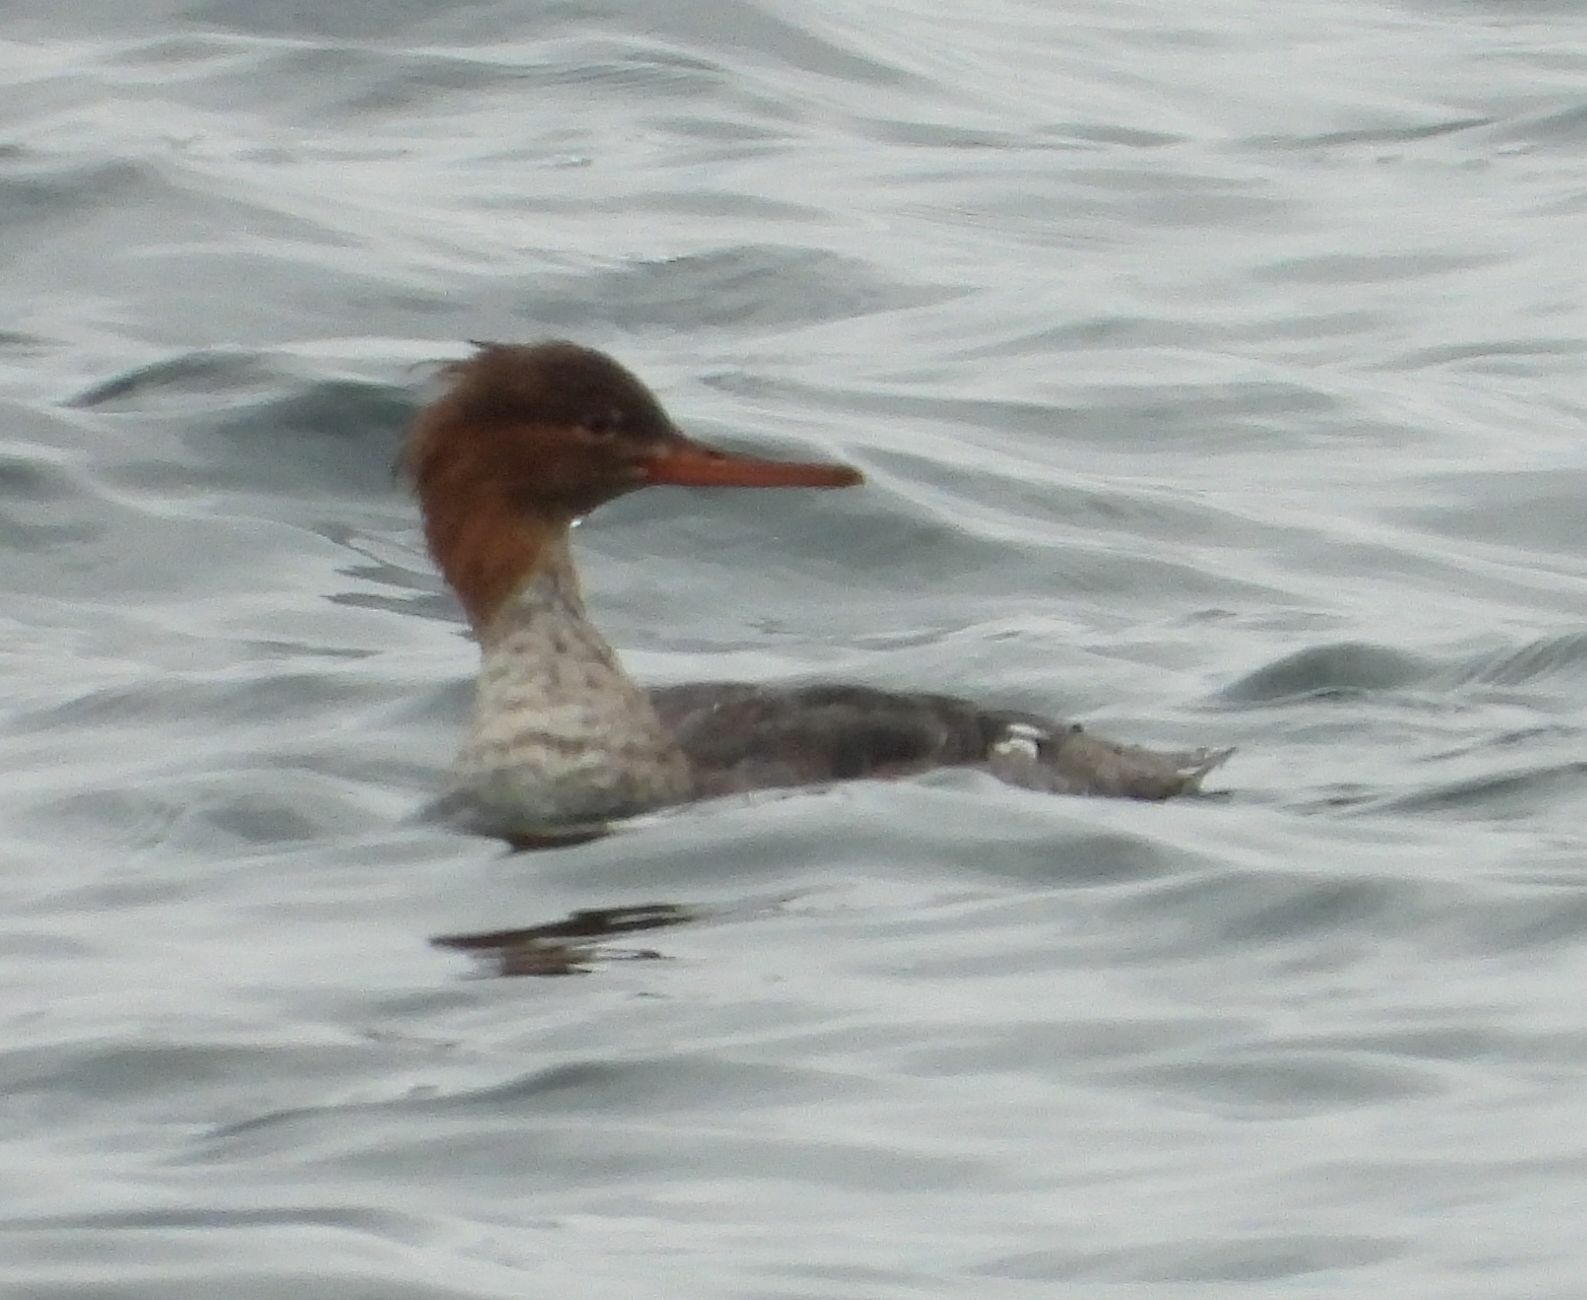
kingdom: Animalia
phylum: Chordata
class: Aves
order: Anseriformes
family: Anatidae
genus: Mergus
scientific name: Mergus serrator
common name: Red-breasted merganser
